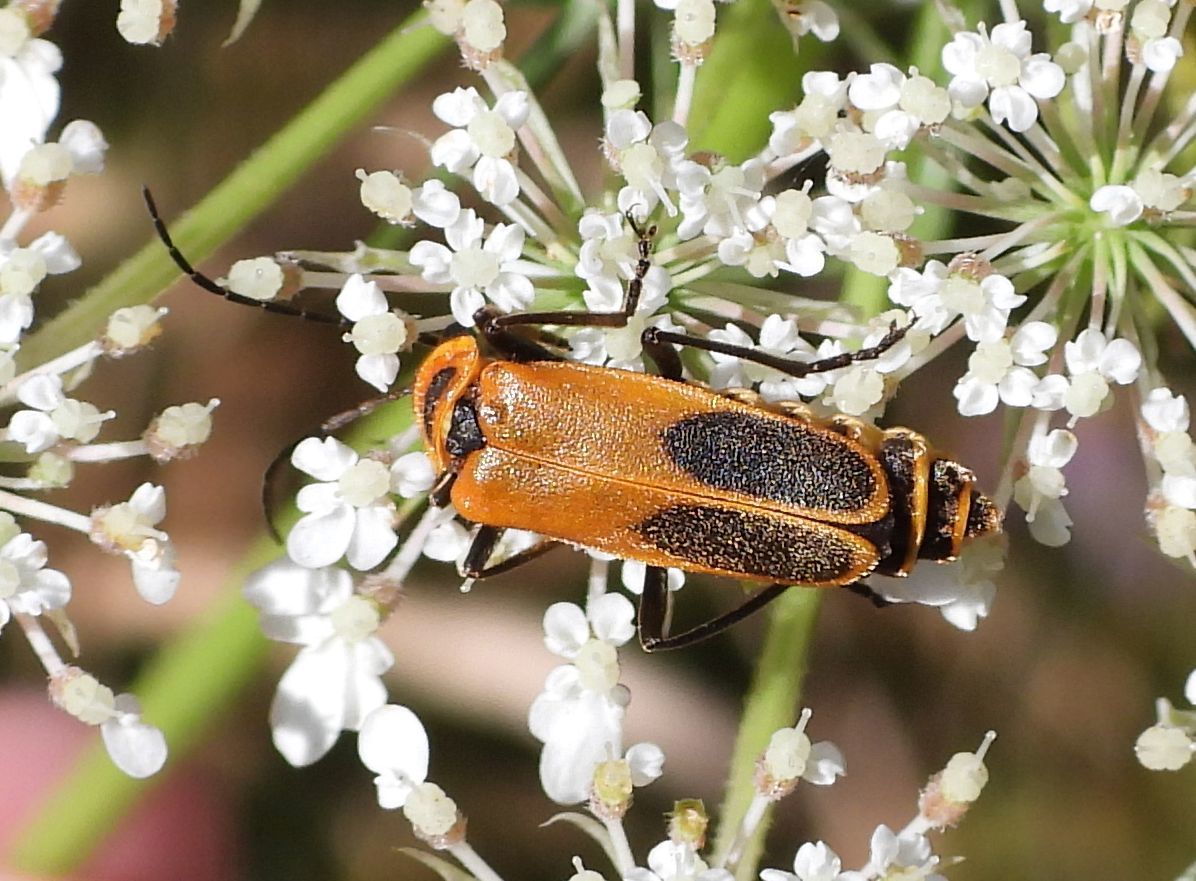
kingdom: Animalia
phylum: Arthropoda
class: Insecta
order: Coleoptera
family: Cantharidae
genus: Chauliognathus
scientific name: Chauliognathus pensylvanicus
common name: Goldenrod soldier beetle
